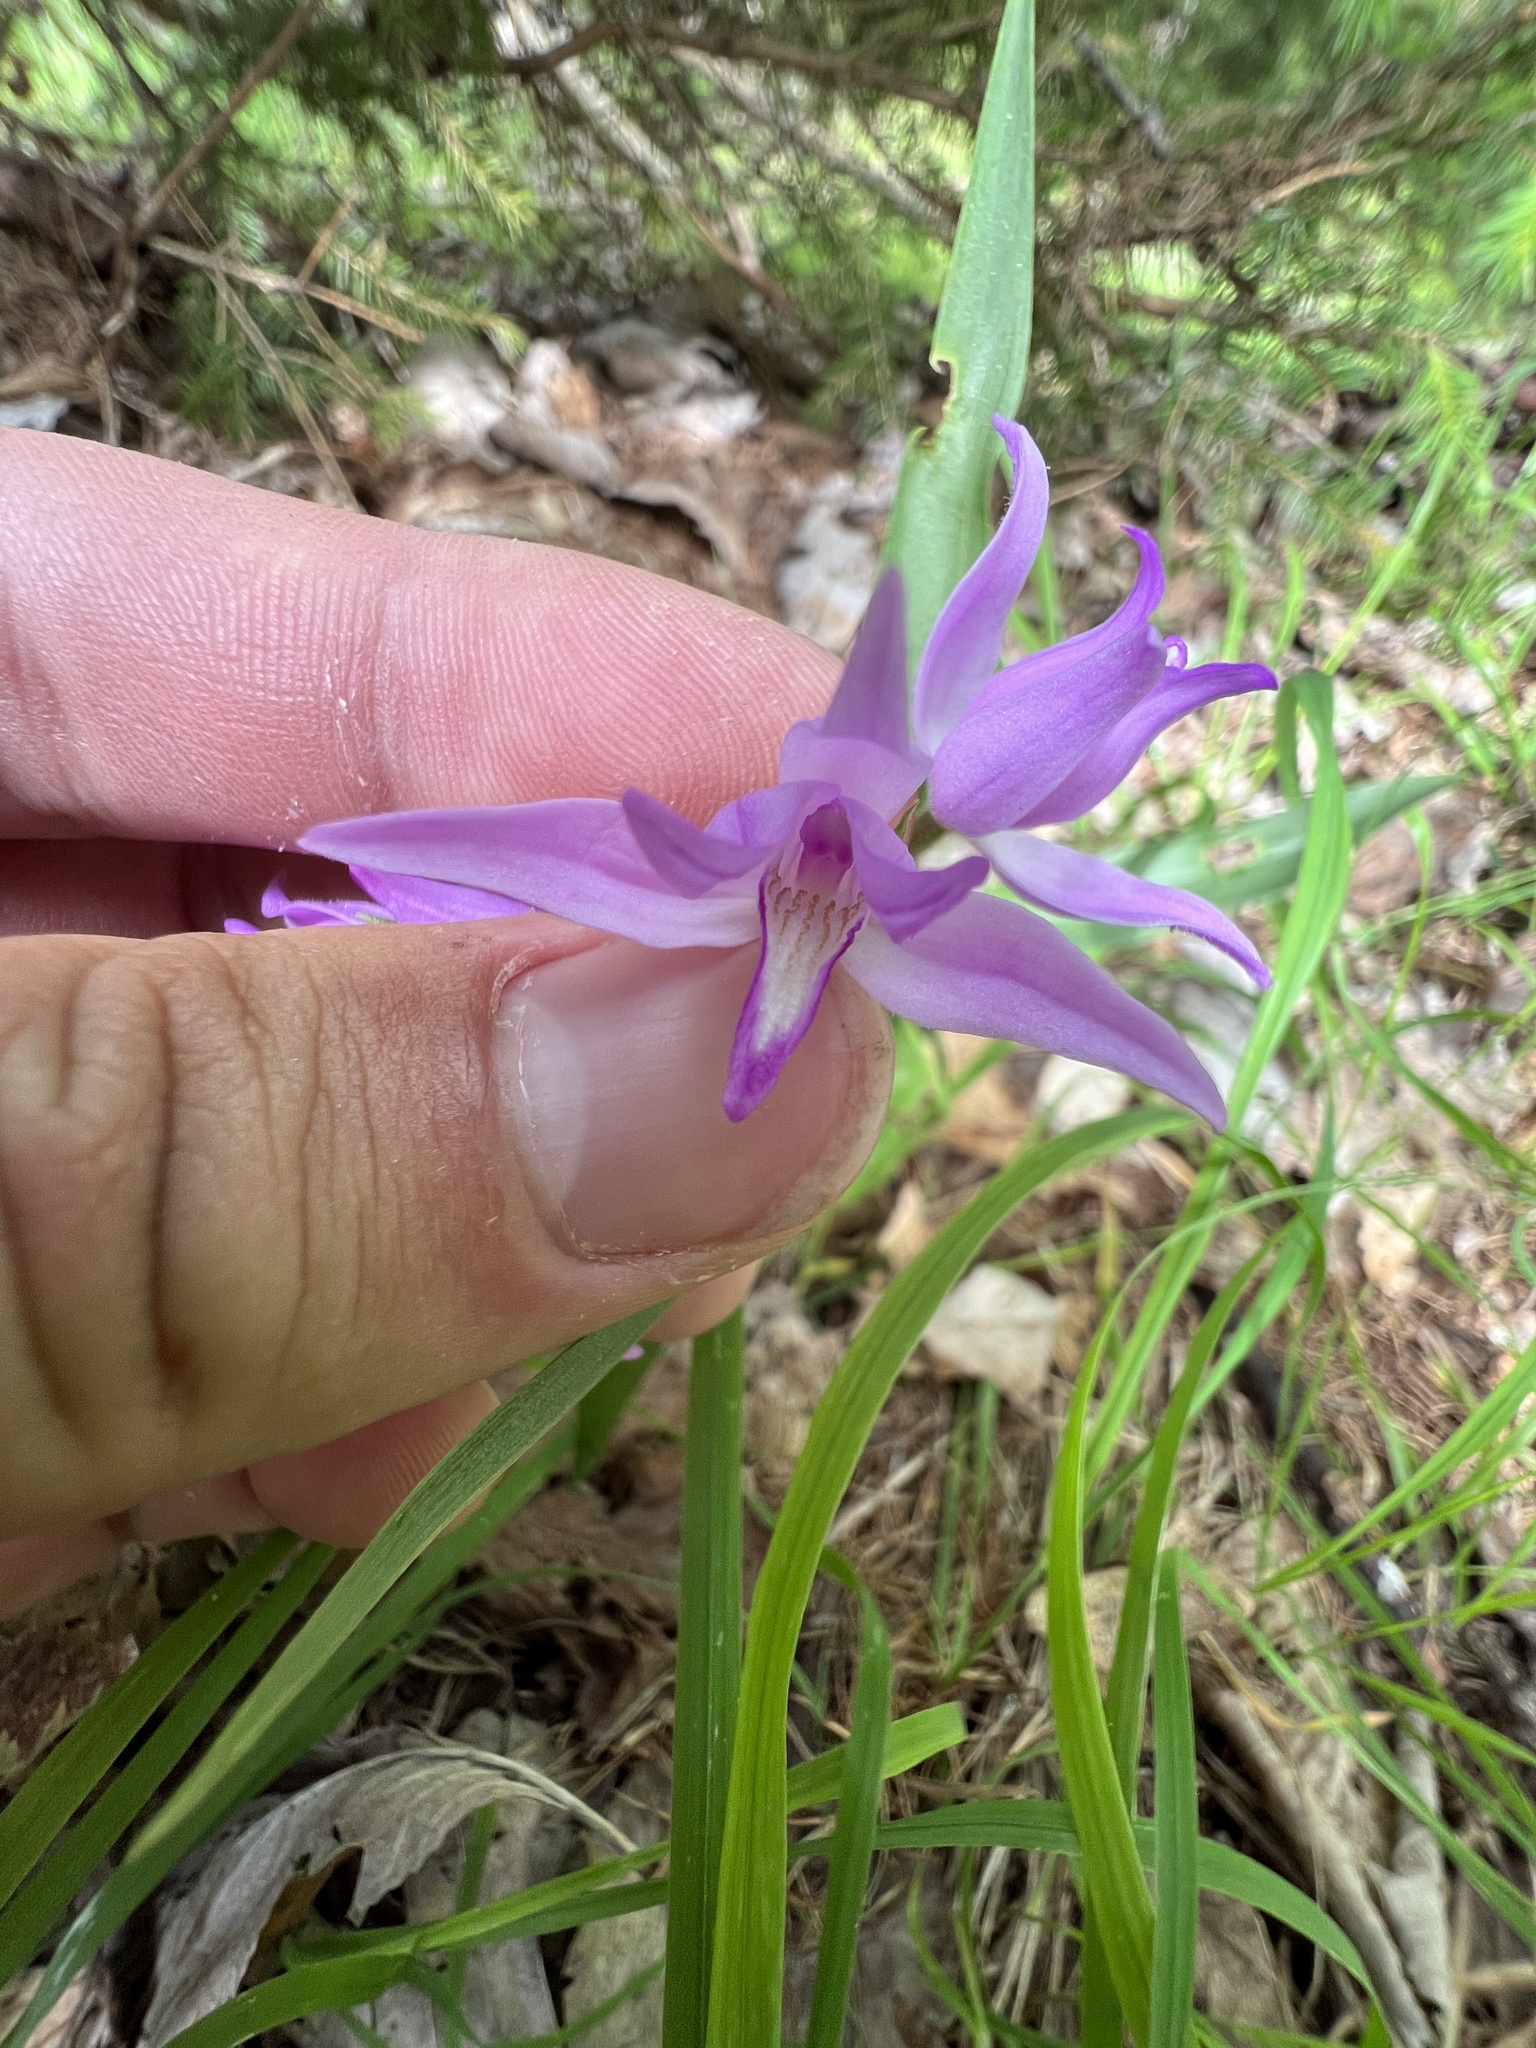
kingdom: Plantae
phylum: Tracheophyta
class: Liliopsida
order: Asparagales
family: Orchidaceae
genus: Cephalanthera
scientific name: Cephalanthera rubra
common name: Red helleborine
